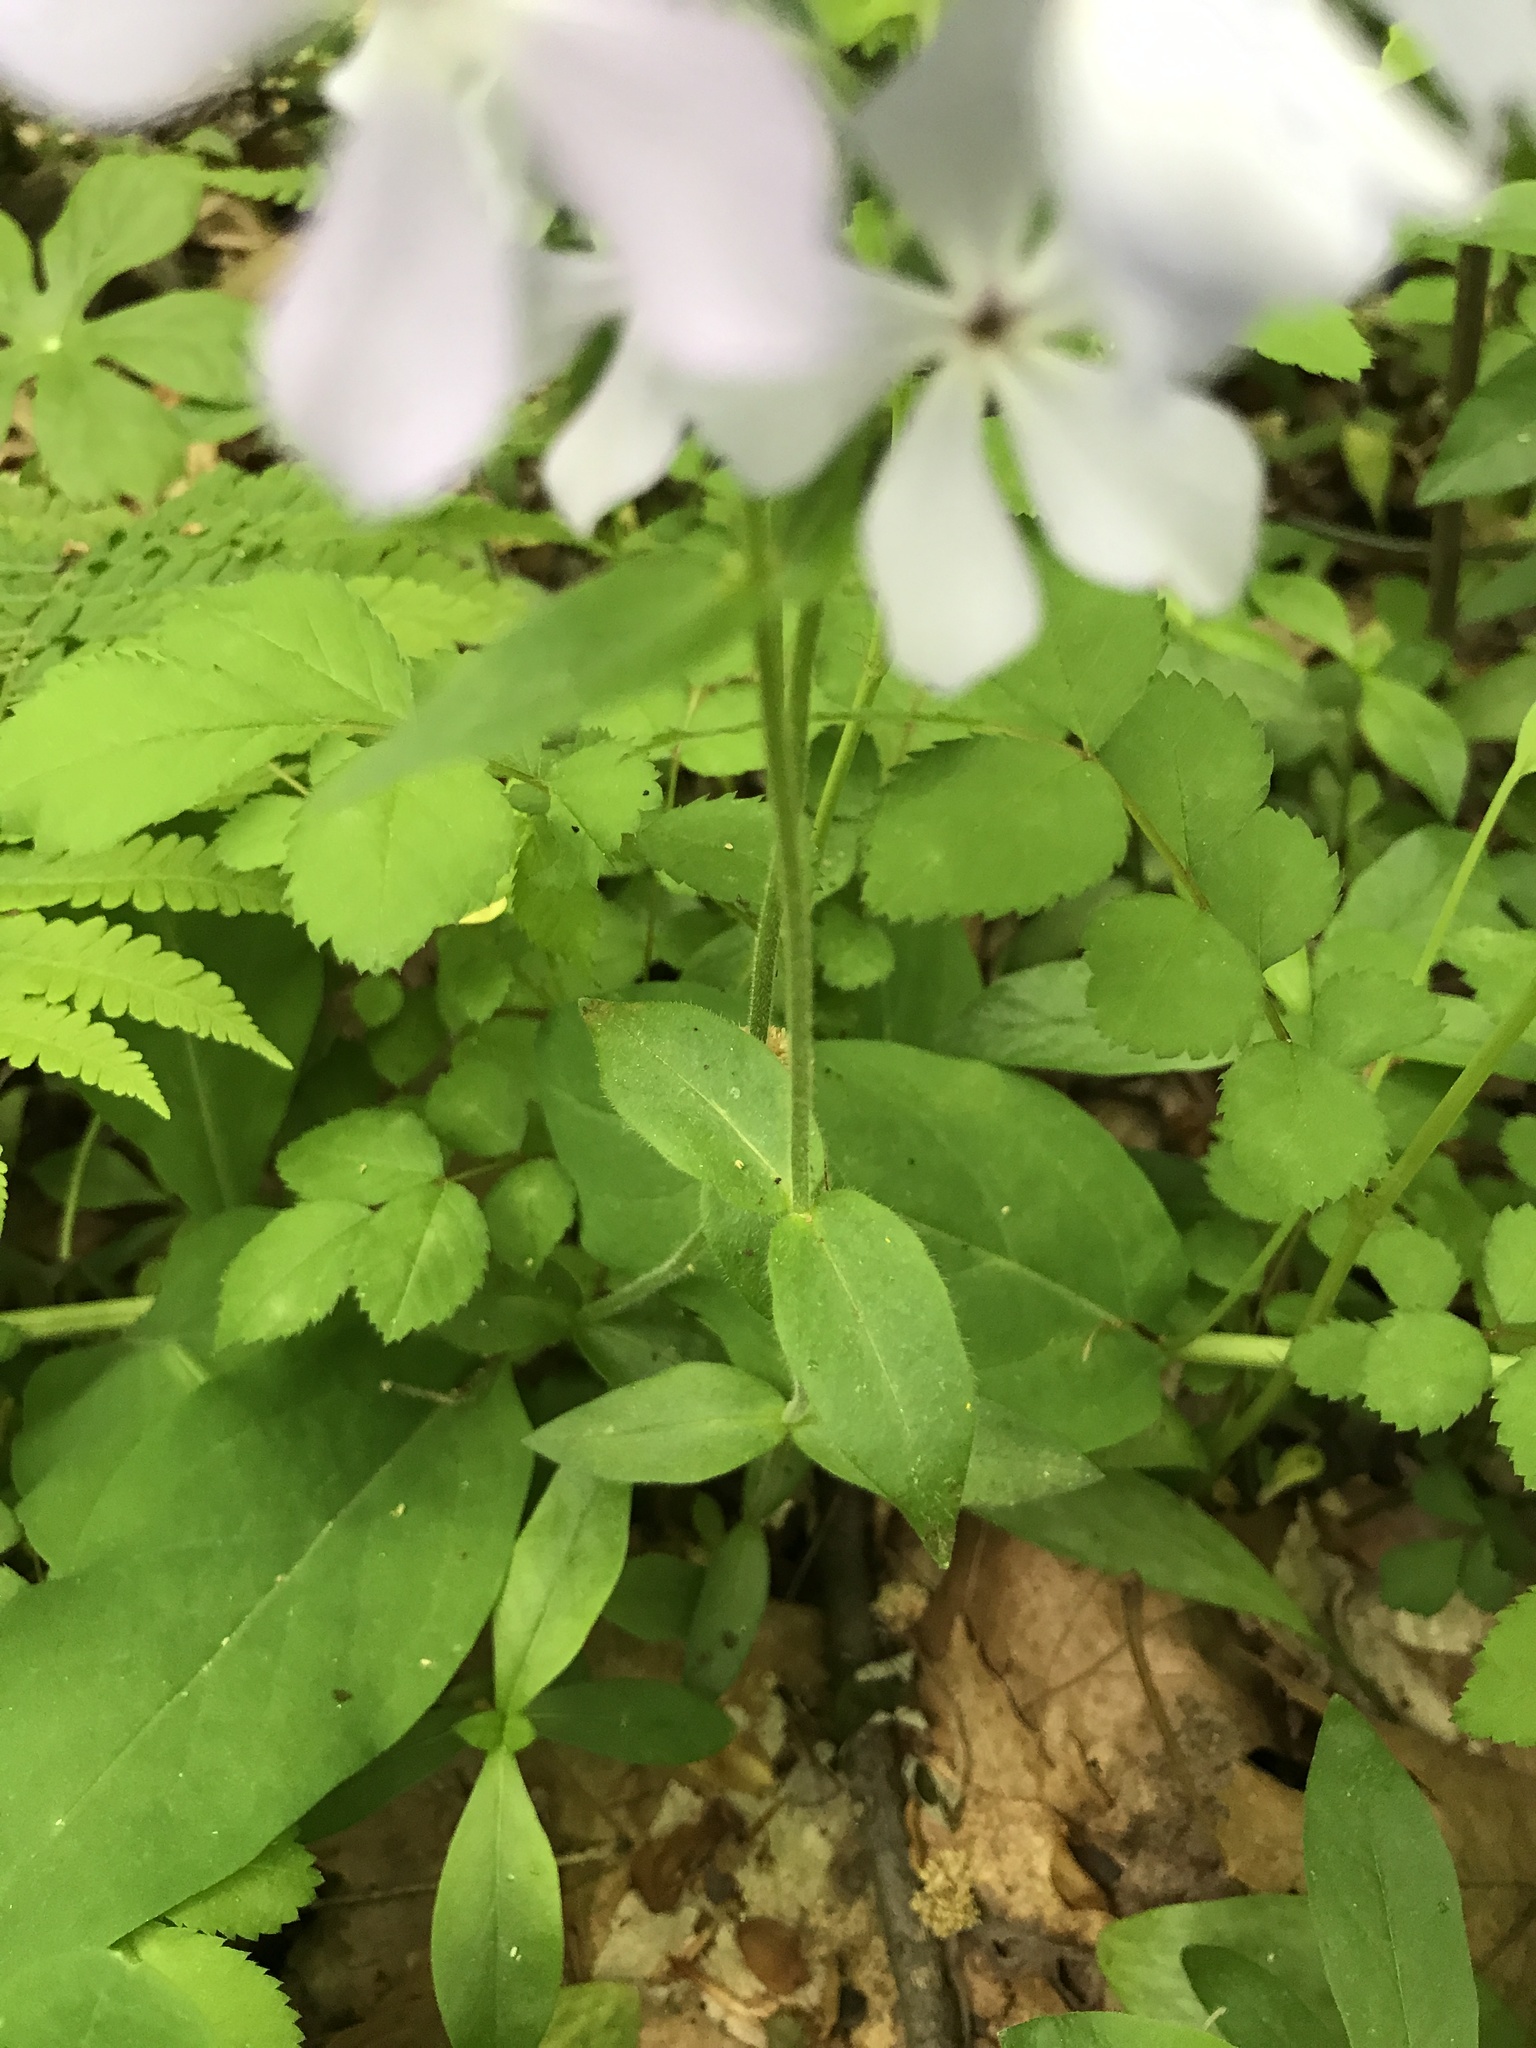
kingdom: Plantae
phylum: Tracheophyta
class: Magnoliopsida
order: Ericales
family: Polemoniaceae
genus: Phlox
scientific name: Phlox divaricata
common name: Blue phlox
